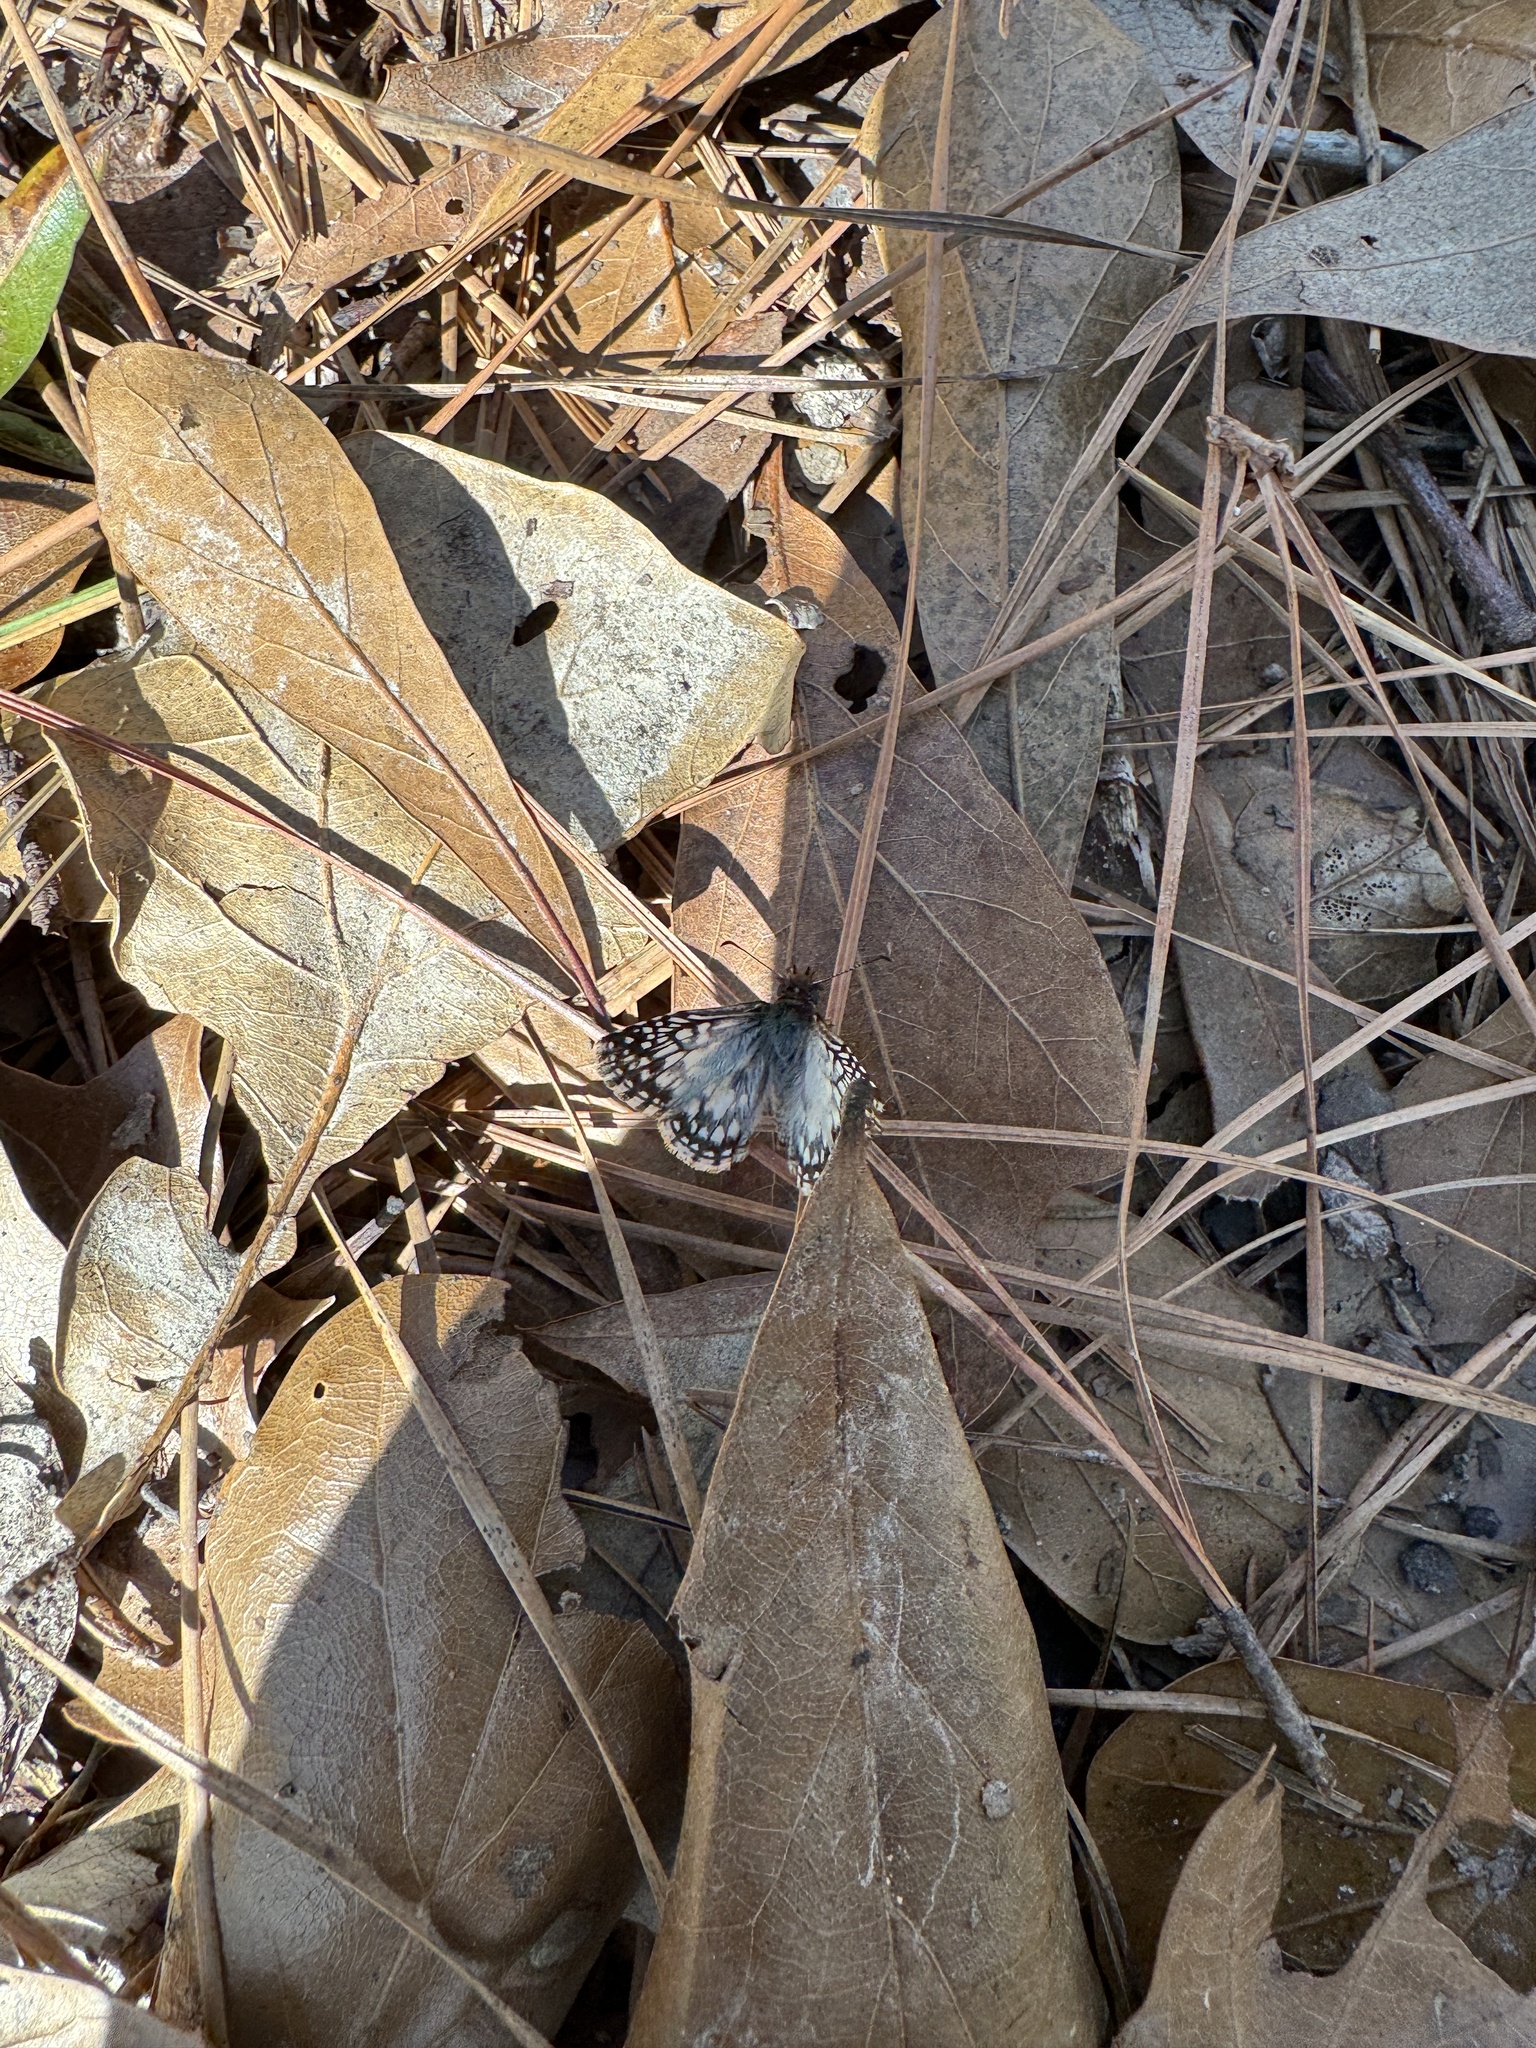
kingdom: Animalia
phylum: Arthropoda
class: Insecta
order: Lepidoptera
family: Hesperiidae
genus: Pyrgus
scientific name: Pyrgus oileus
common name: Tropical checkered-skipper
